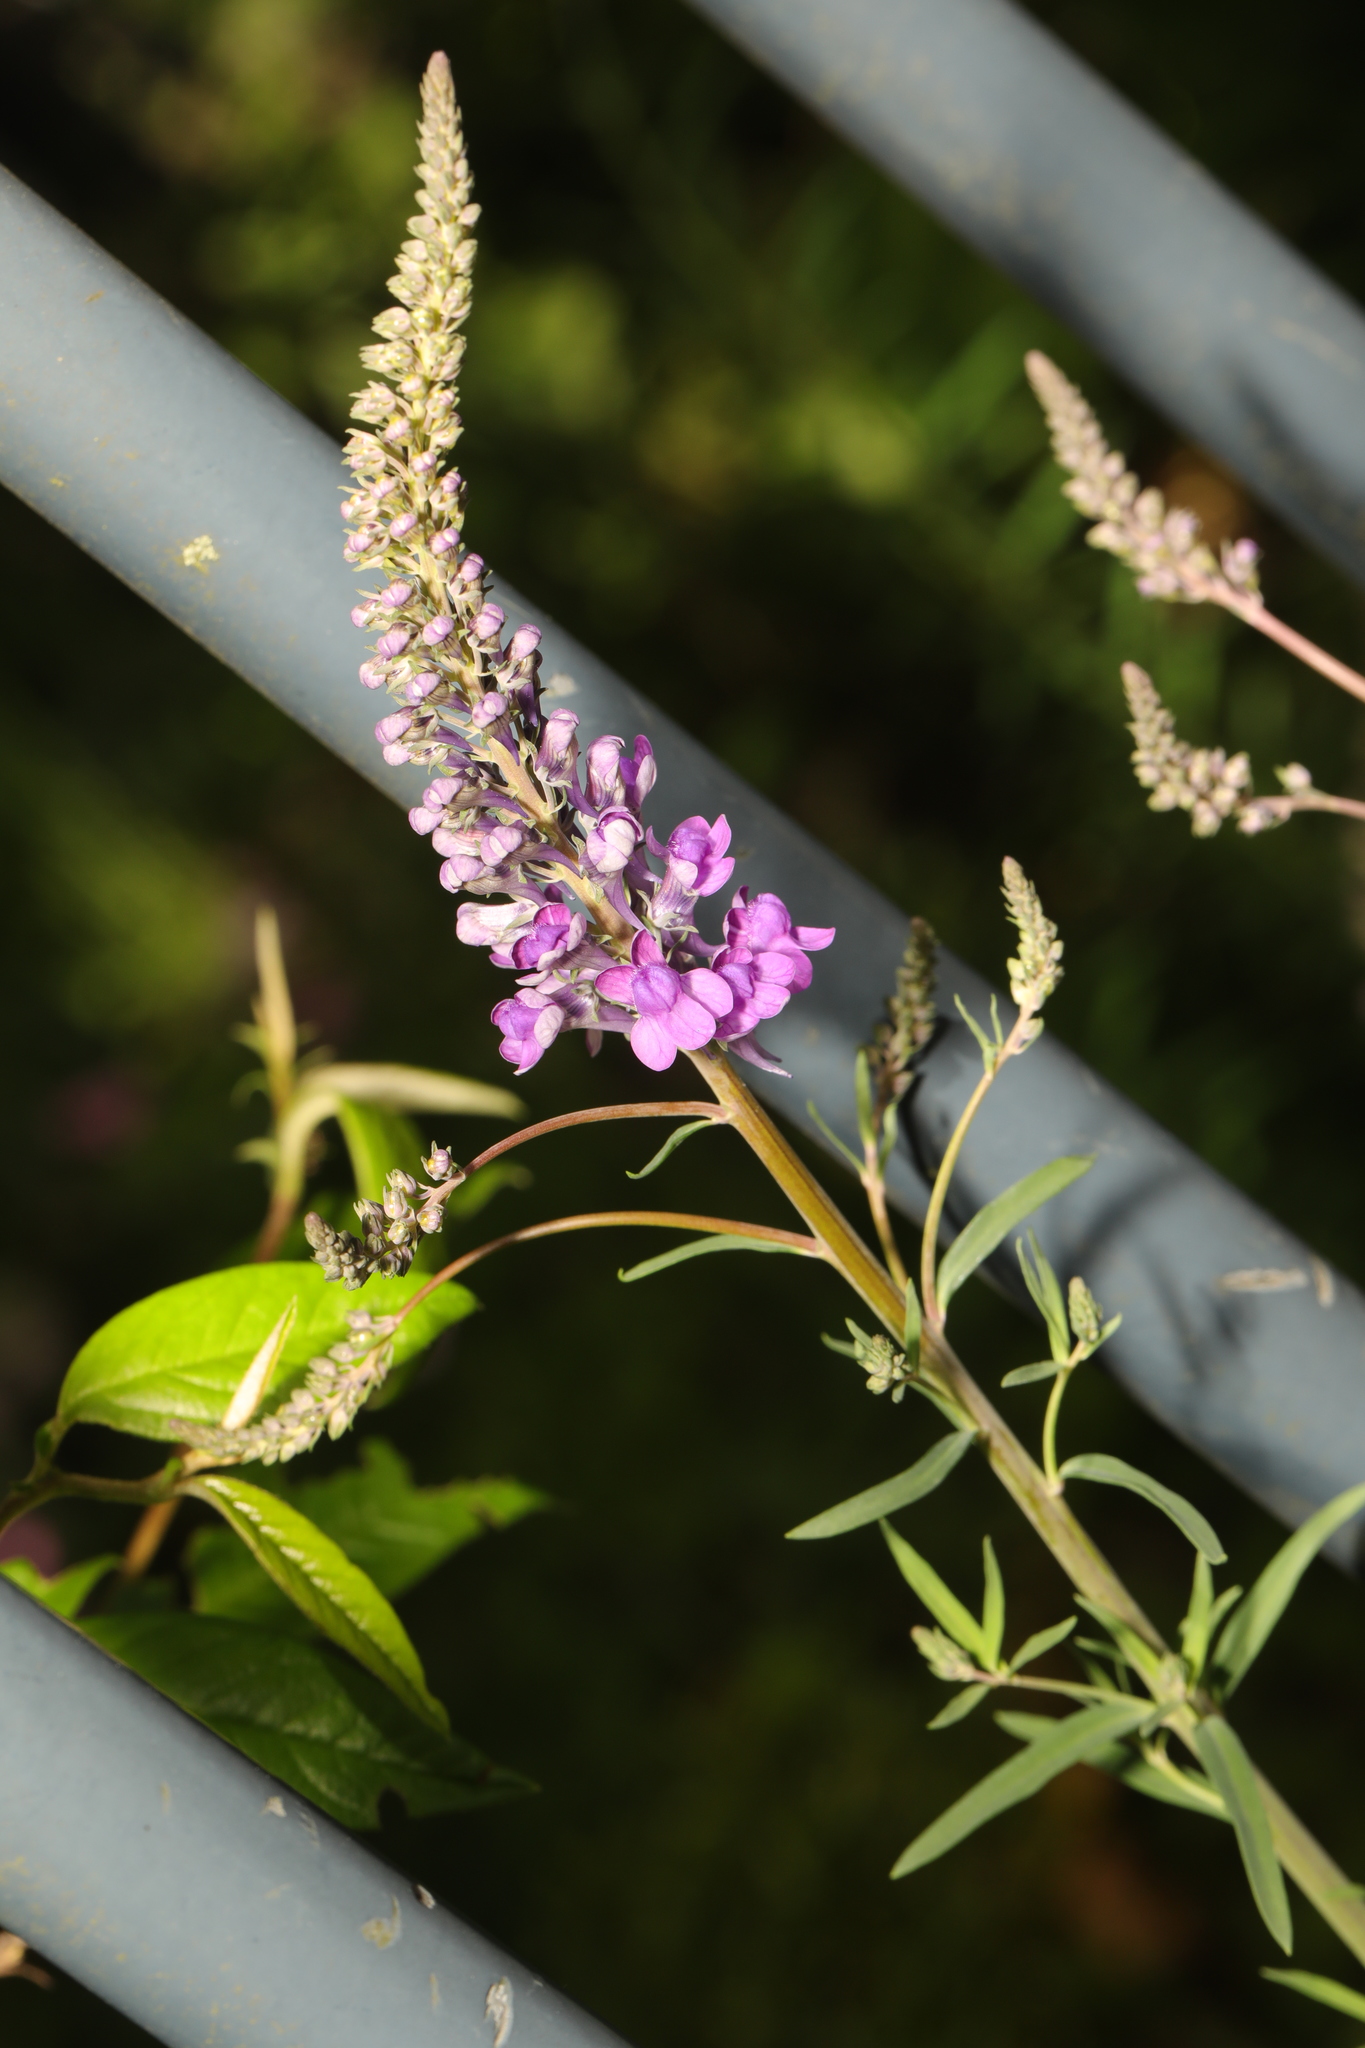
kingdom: Plantae
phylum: Tracheophyta
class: Magnoliopsida
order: Lamiales
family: Plantaginaceae
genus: Linaria
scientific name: Linaria purpurea
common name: Purple toadflax
